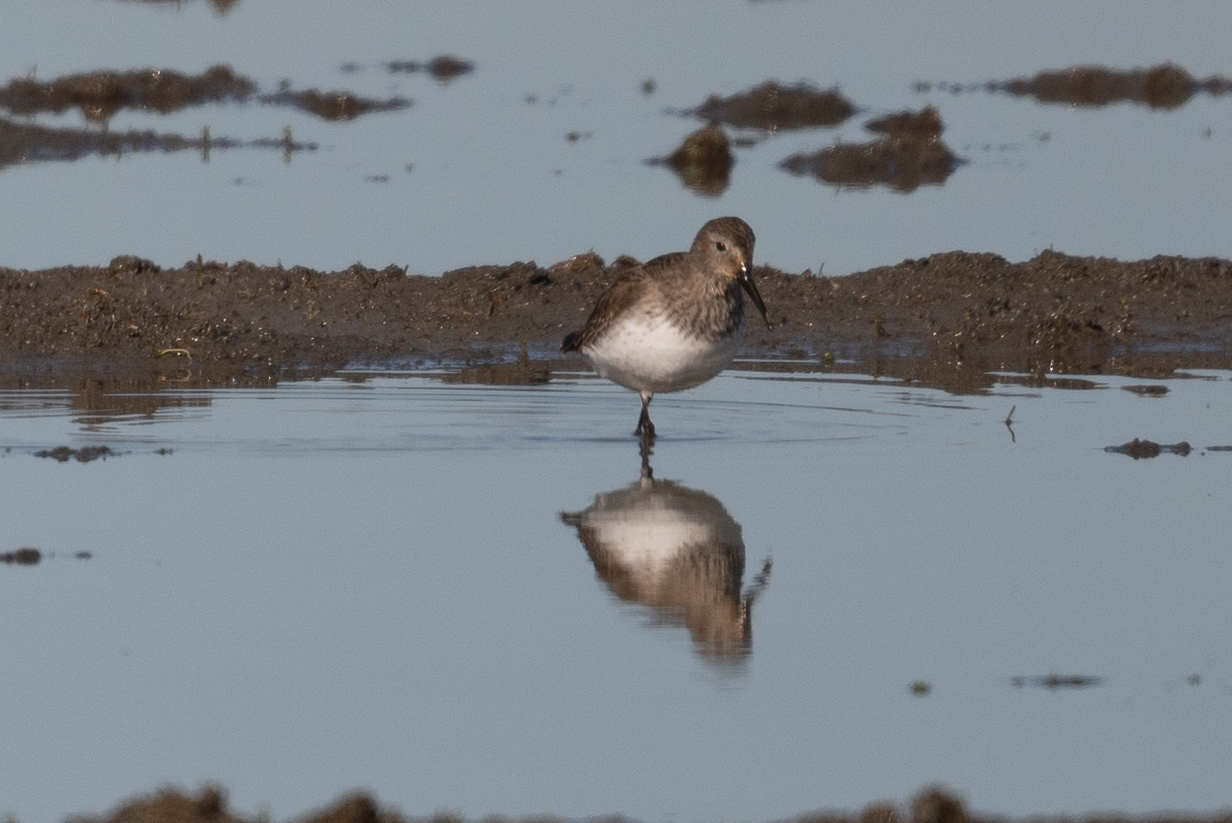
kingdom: Animalia
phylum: Chordata
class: Aves
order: Charadriiformes
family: Scolopacidae
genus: Calidris
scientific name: Calidris alpina
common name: Dunlin
